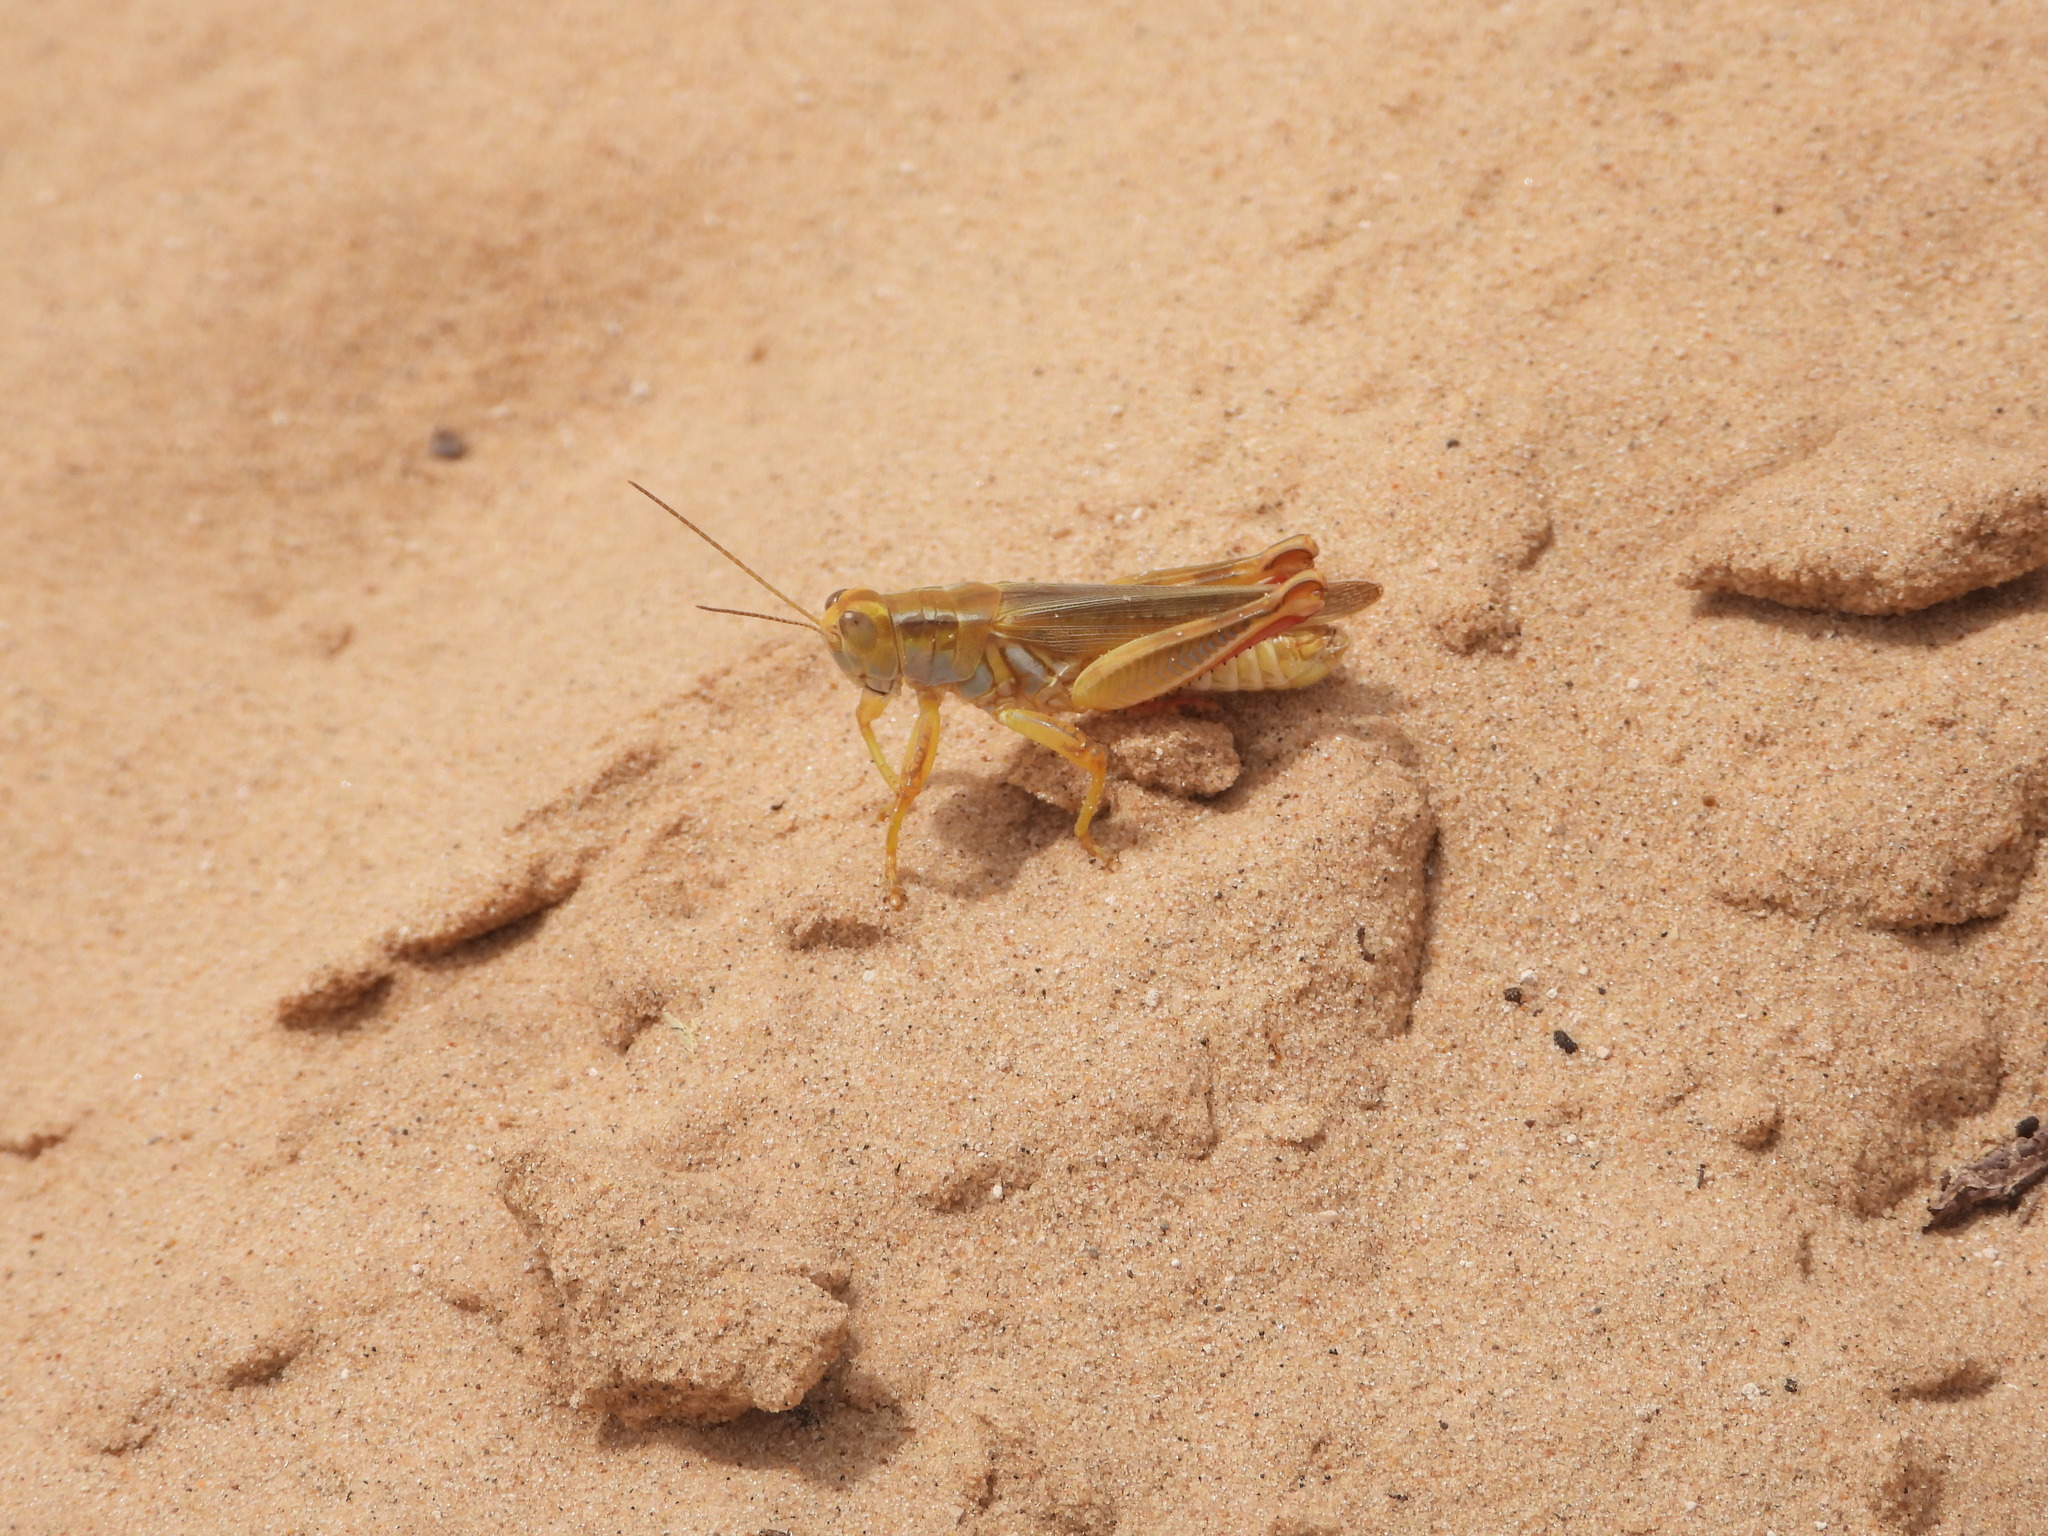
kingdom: Animalia
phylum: Arthropoda
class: Insecta
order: Orthoptera
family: Acrididae
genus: Melanoplus
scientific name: Melanoplus foedus
